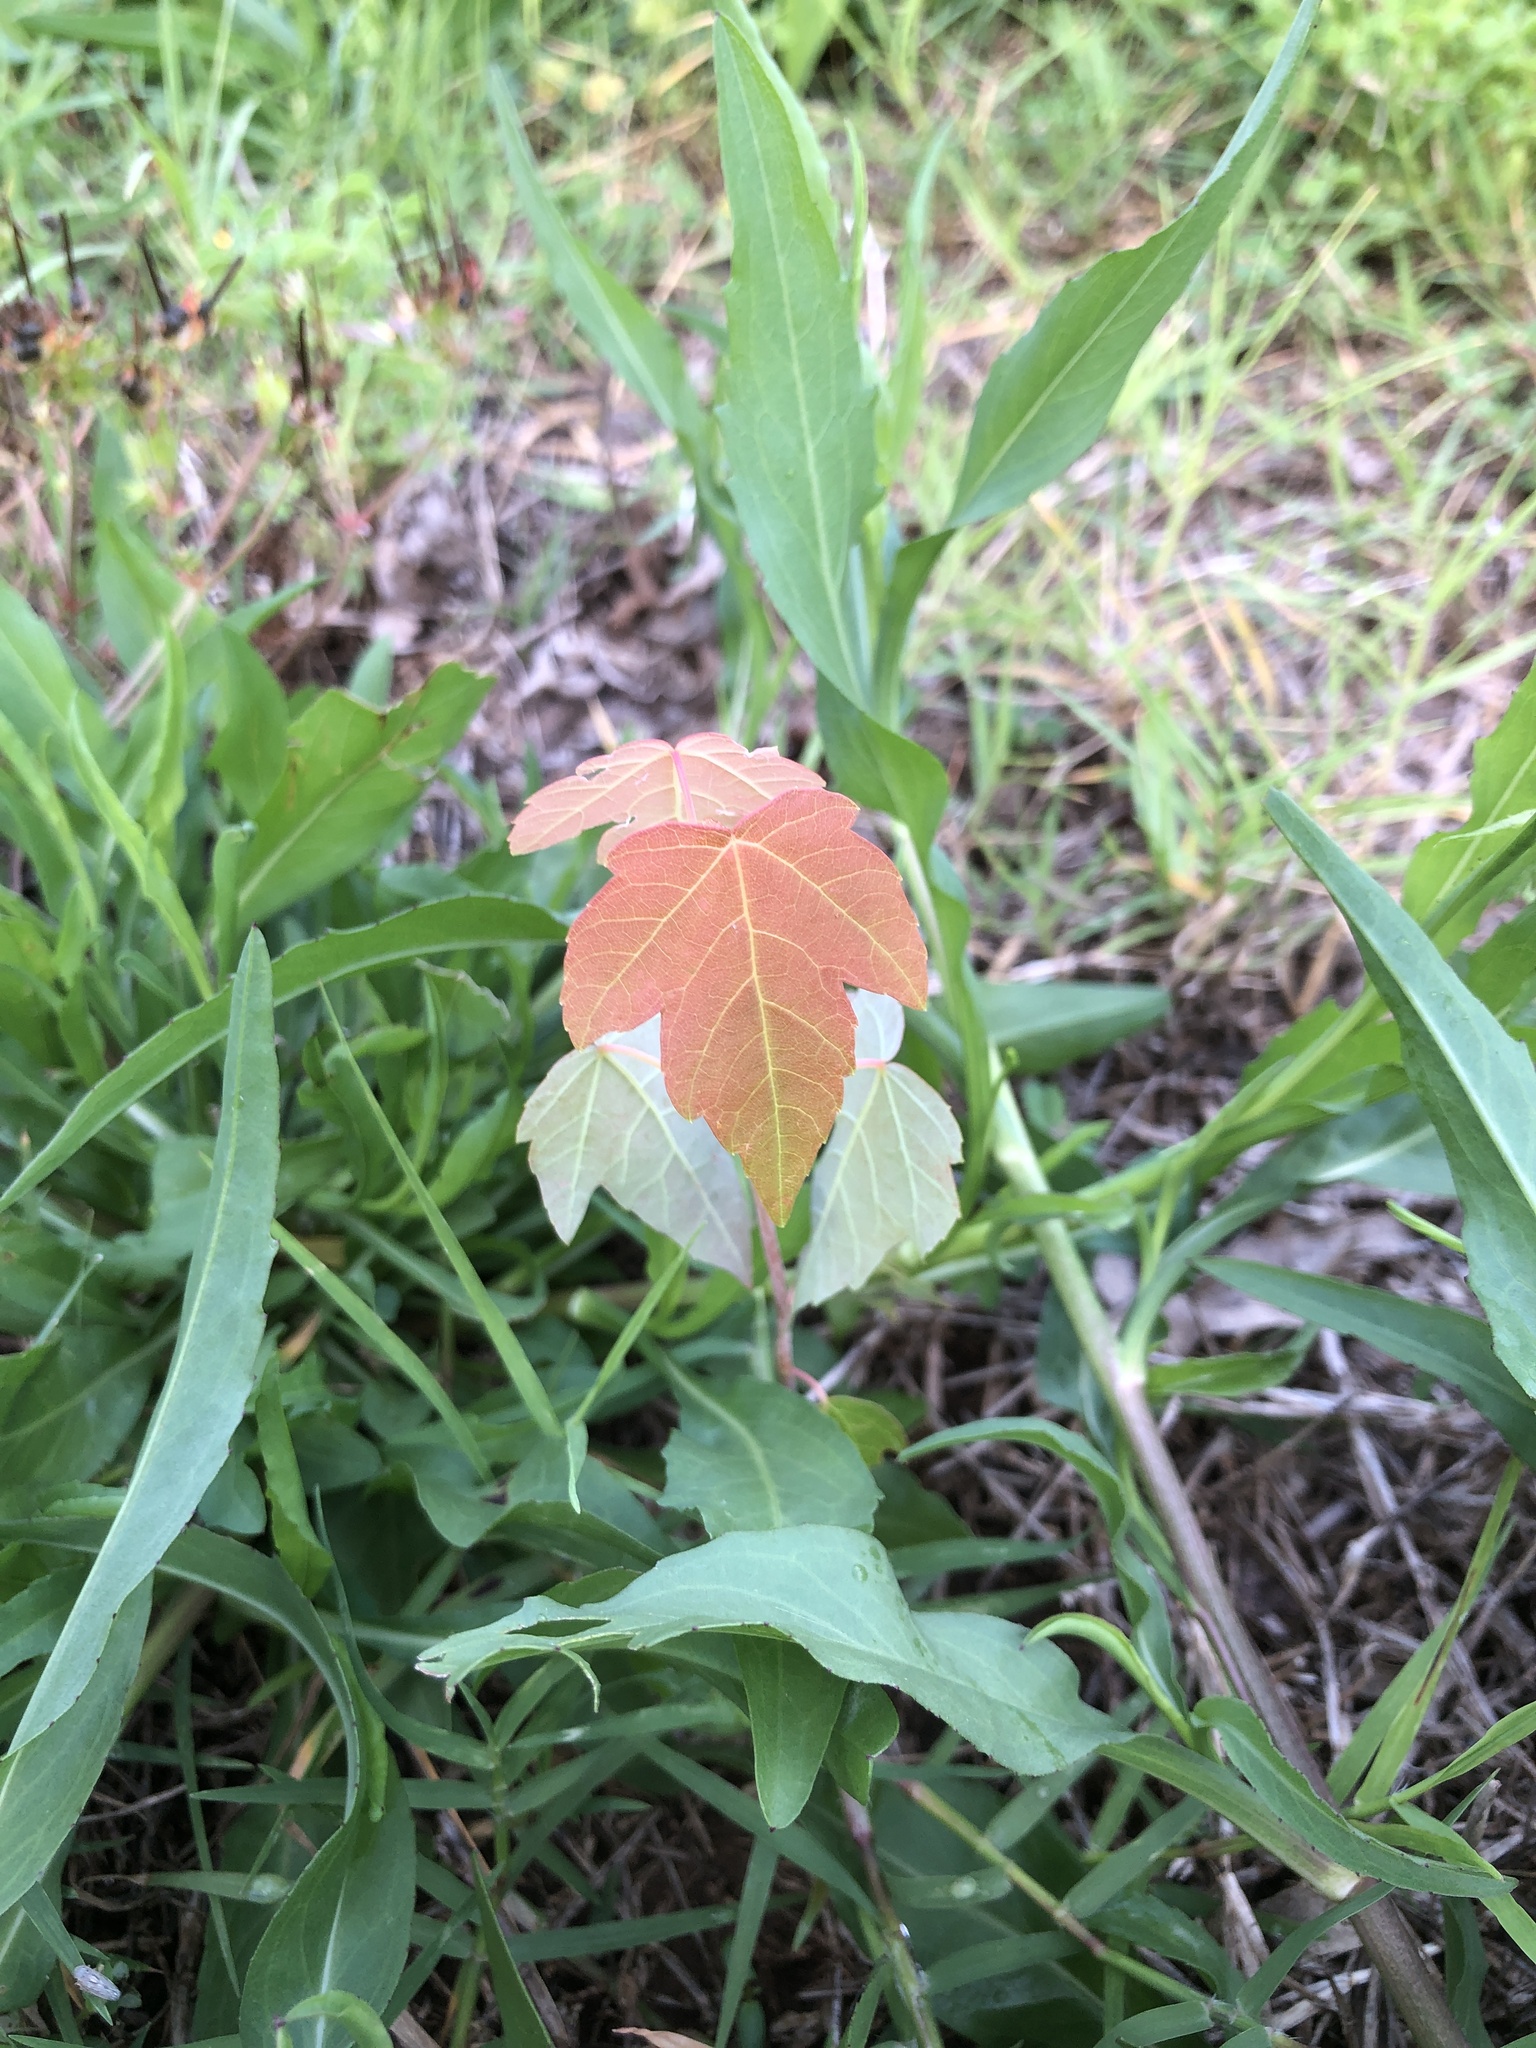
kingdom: Plantae
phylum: Tracheophyta
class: Magnoliopsida
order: Sapindales
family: Sapindaceae
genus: Acer
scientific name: Acer rubrum
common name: Red maple
